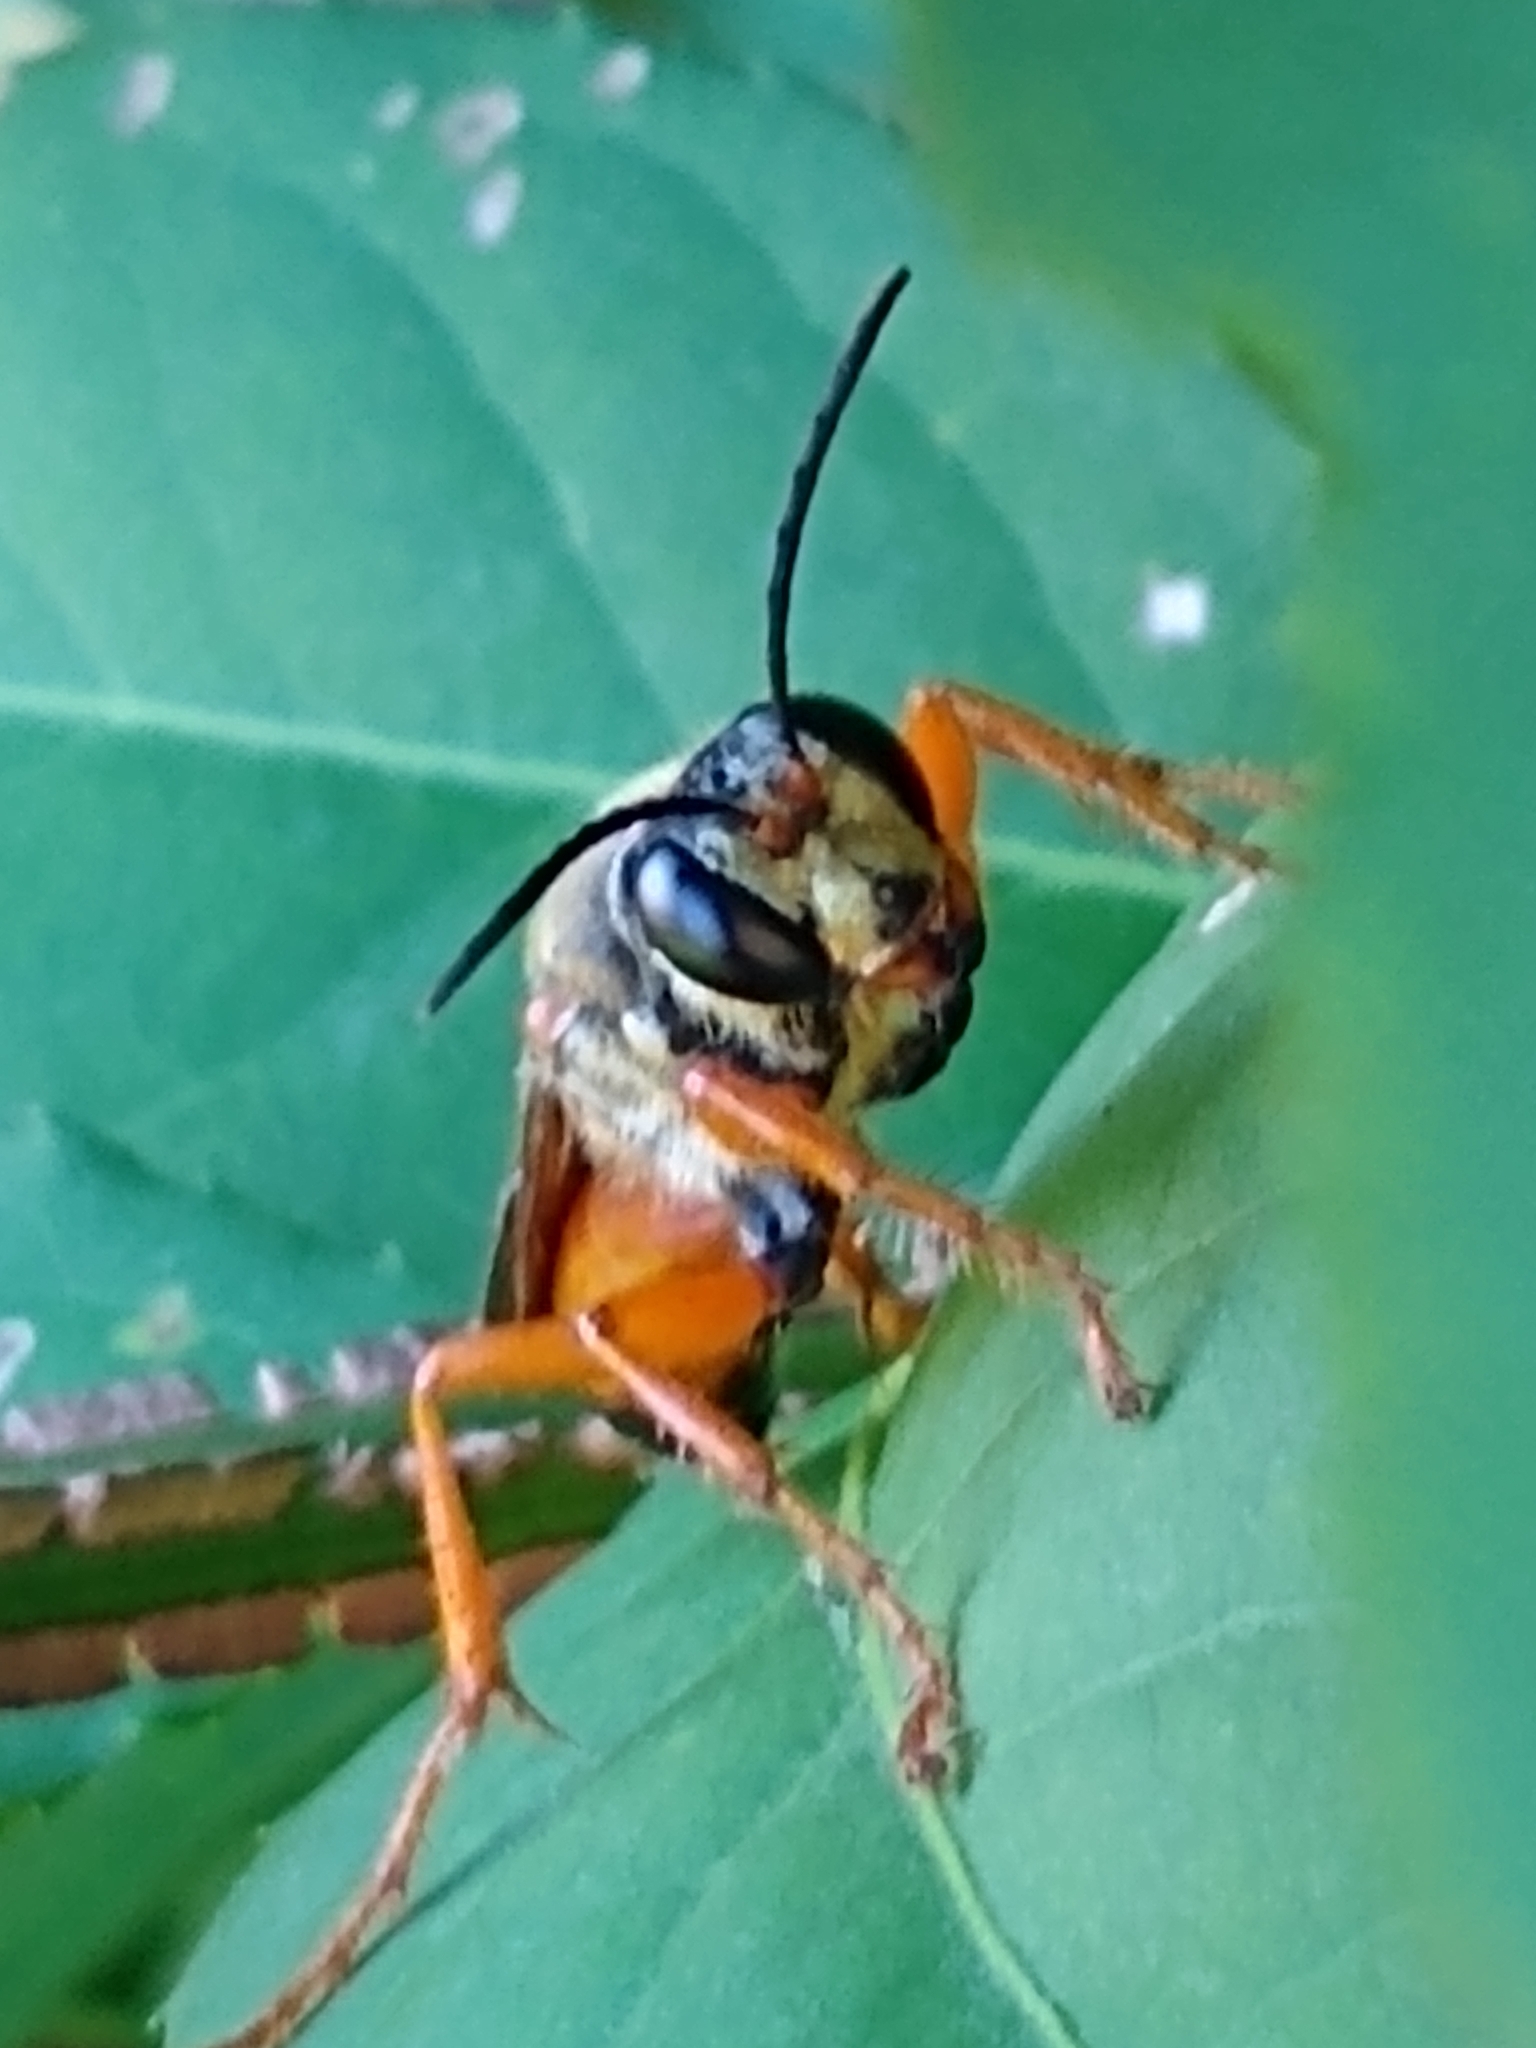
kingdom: Animalia
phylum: Arthropoda
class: Insecta
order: Hymenoptera
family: Sphecidae
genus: Sphex
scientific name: Sphex ichneumoneus
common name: Great golden digger wasp
